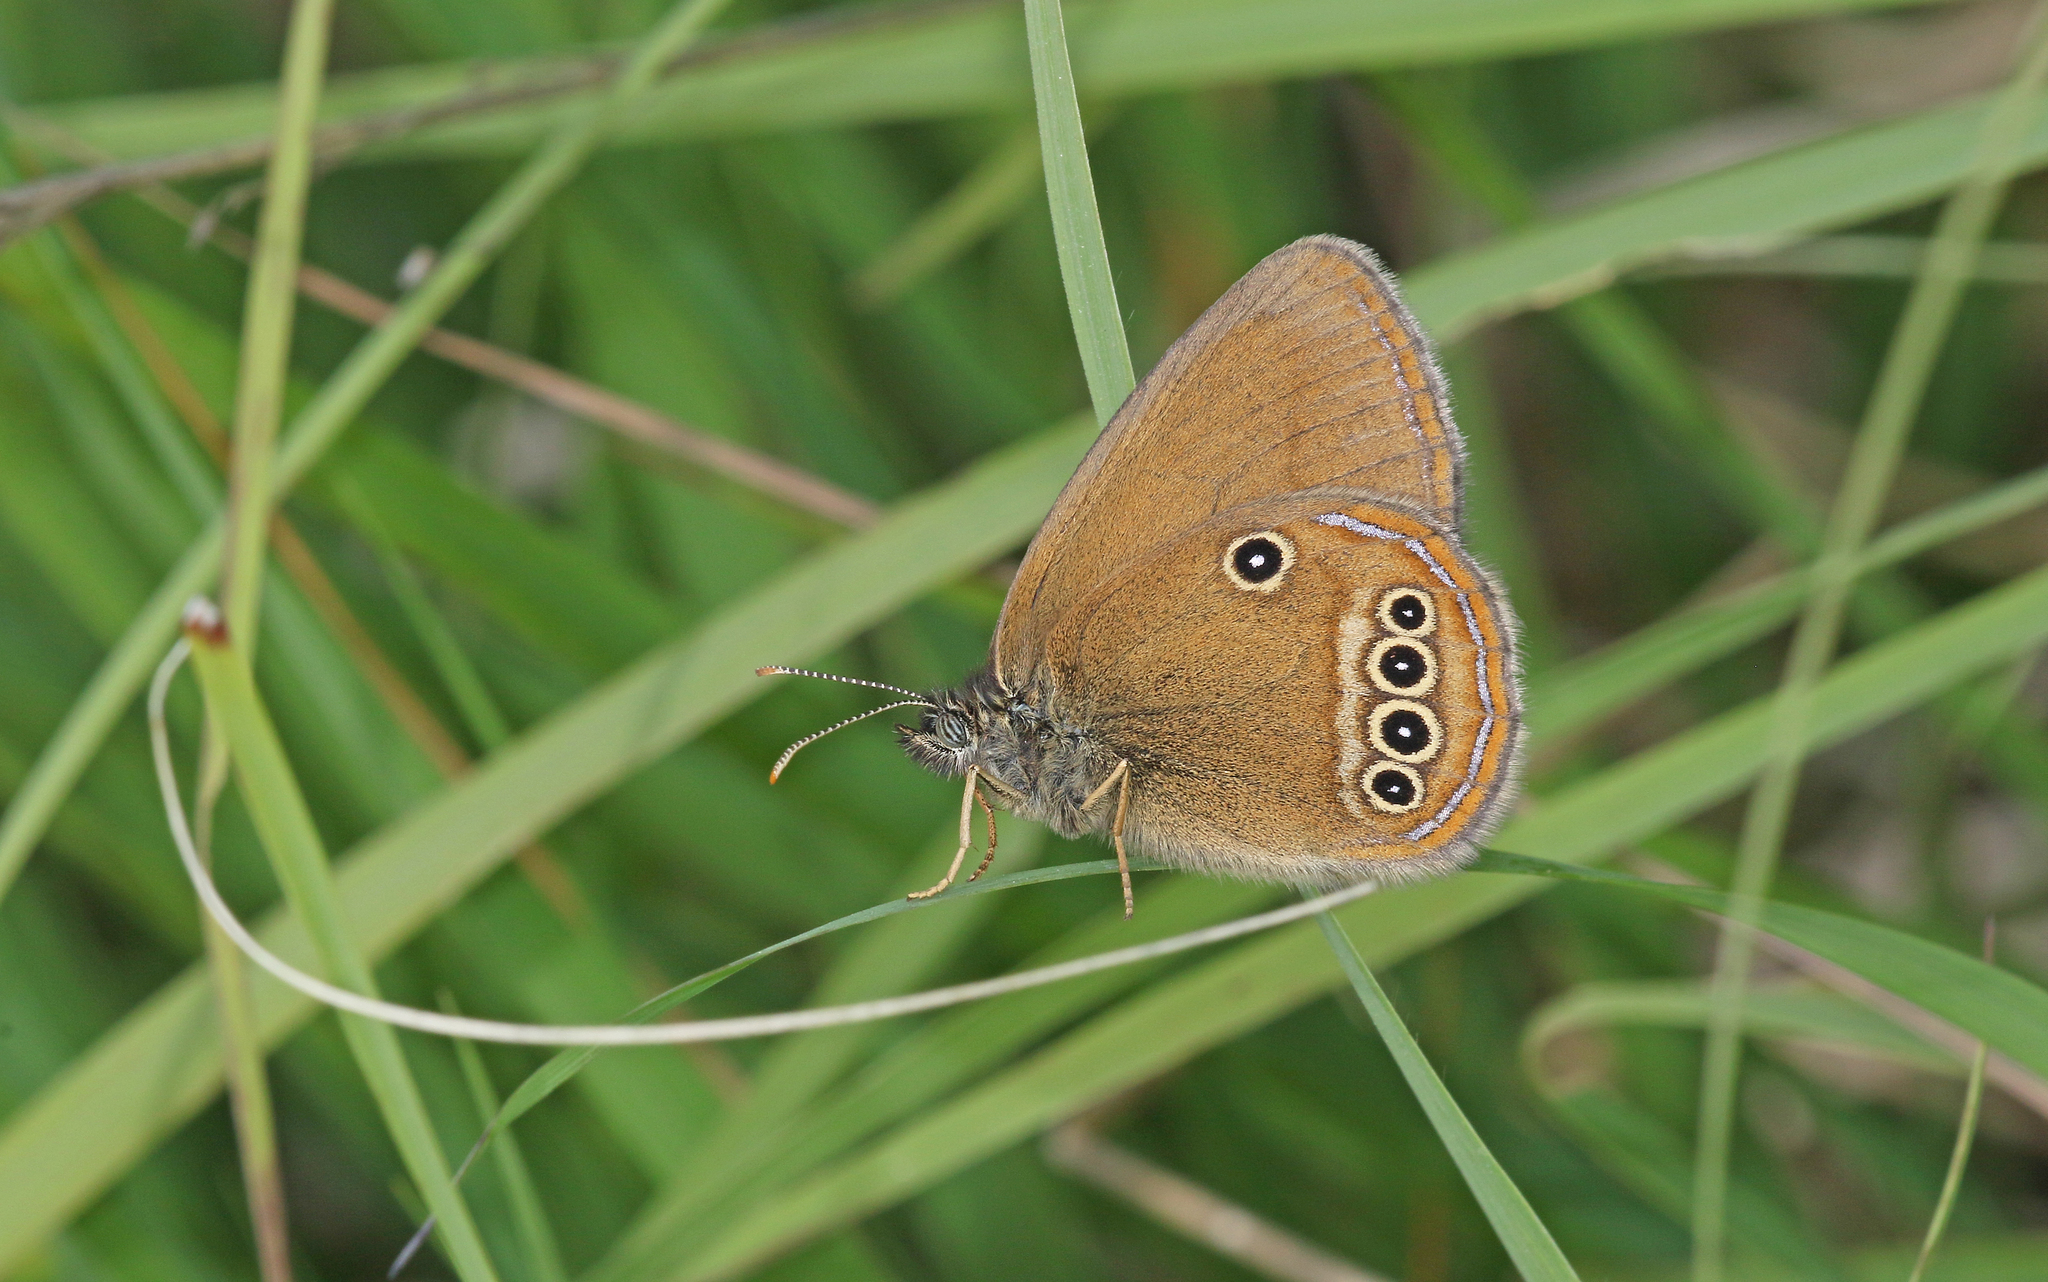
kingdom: Animalia
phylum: Arthropoda
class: Insecta
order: Lepidoptera
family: Nymphalidae
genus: Coenonympha
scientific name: Coenonympha oedippus
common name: False ringlet
